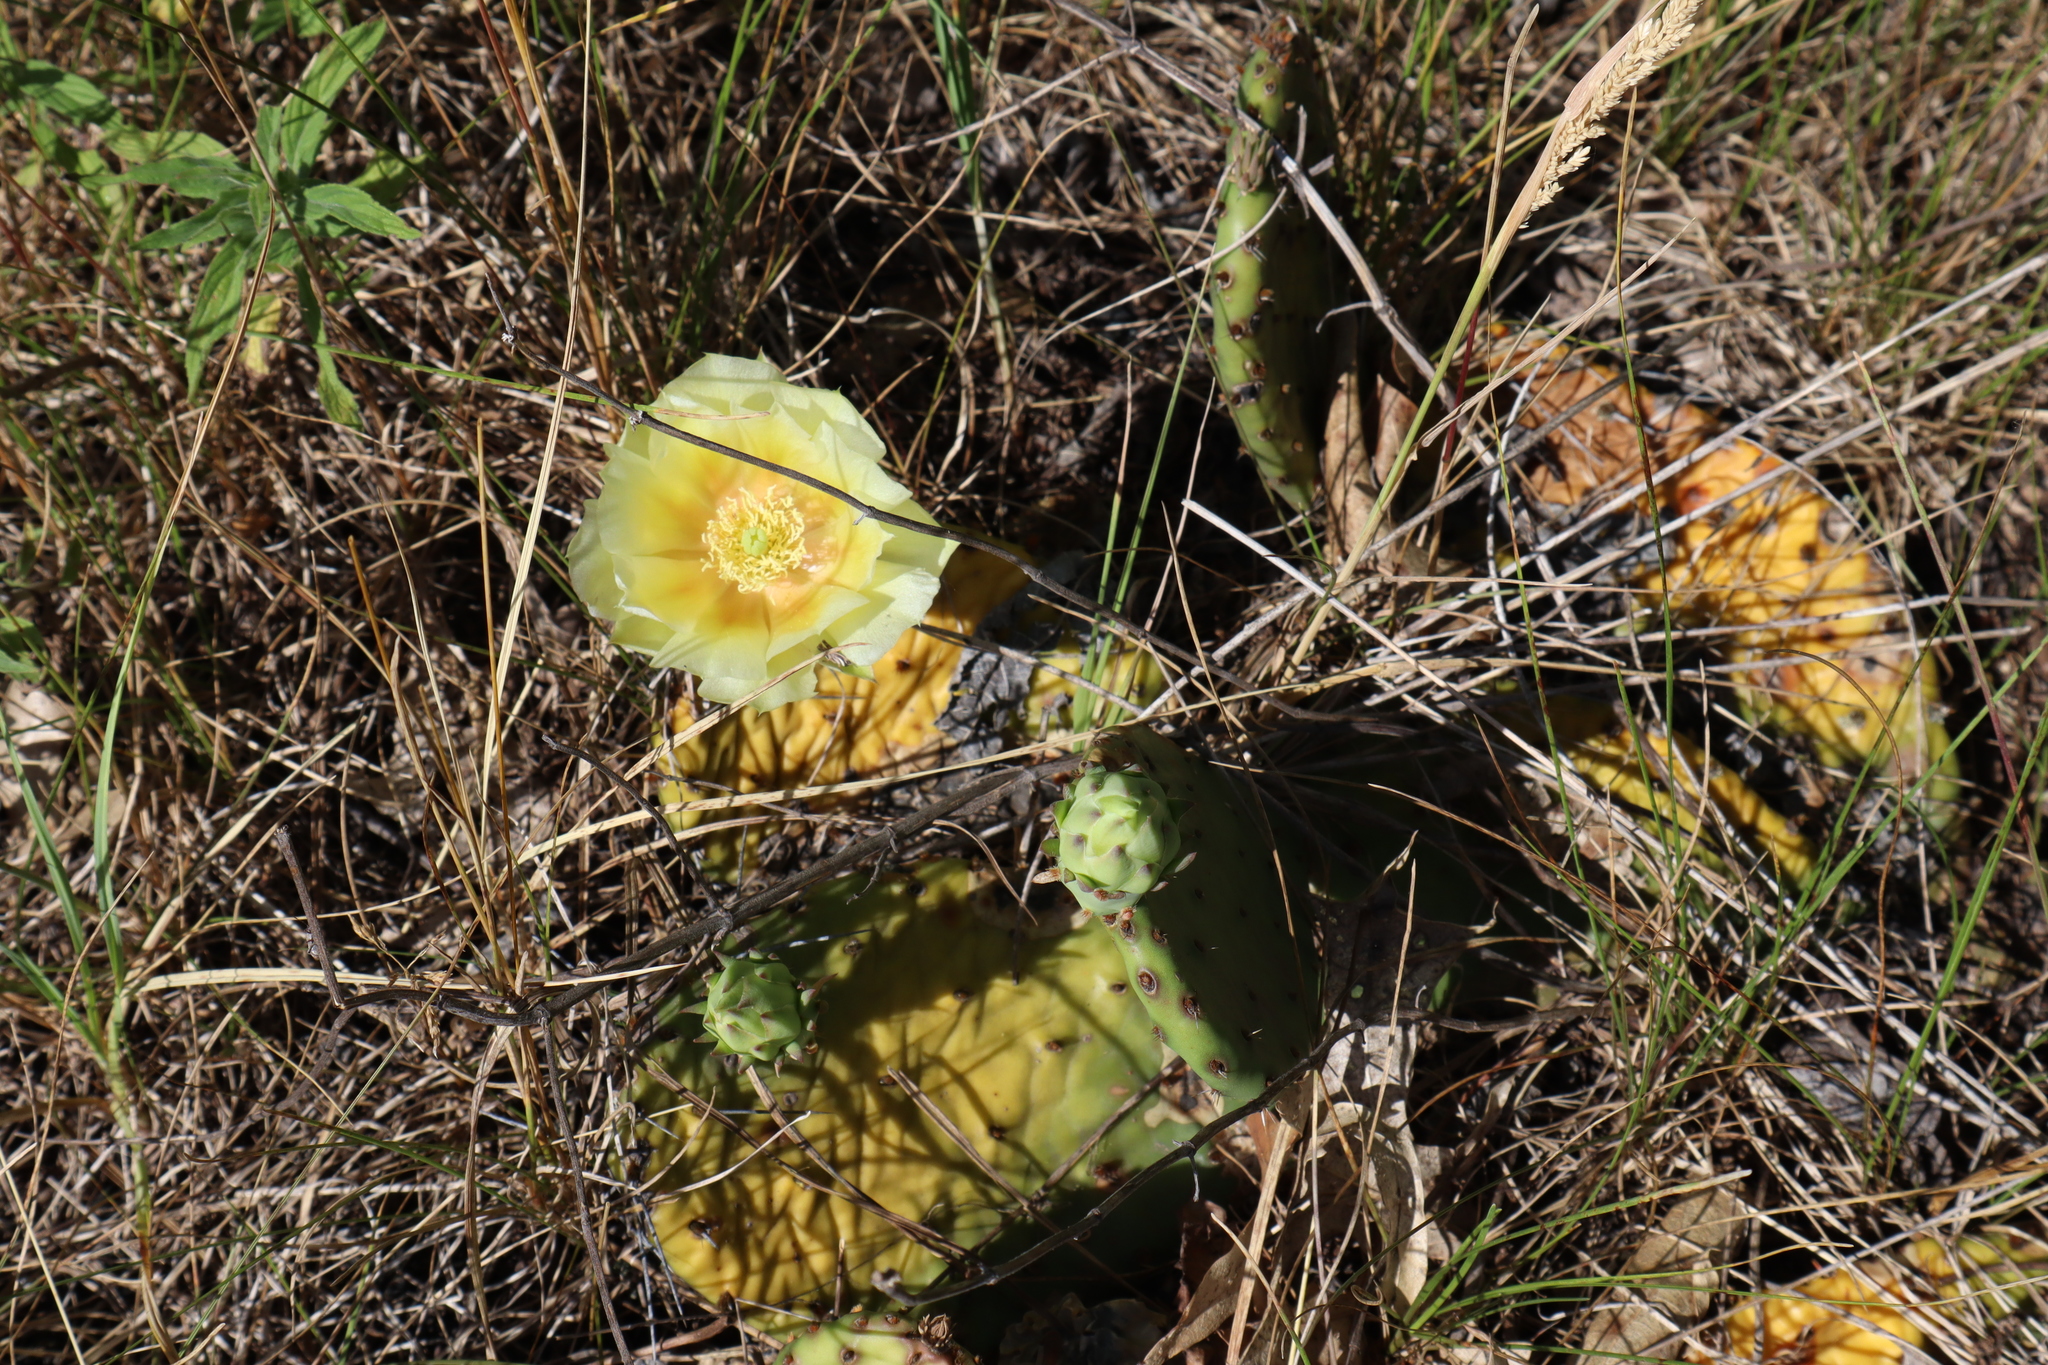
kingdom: Plantae
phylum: Tracheophyta
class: Magnoliopsida
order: Caryophyllales
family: Cactaceae
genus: Opuntia
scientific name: Opuntia humifusa
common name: Eastern prickly-pear
